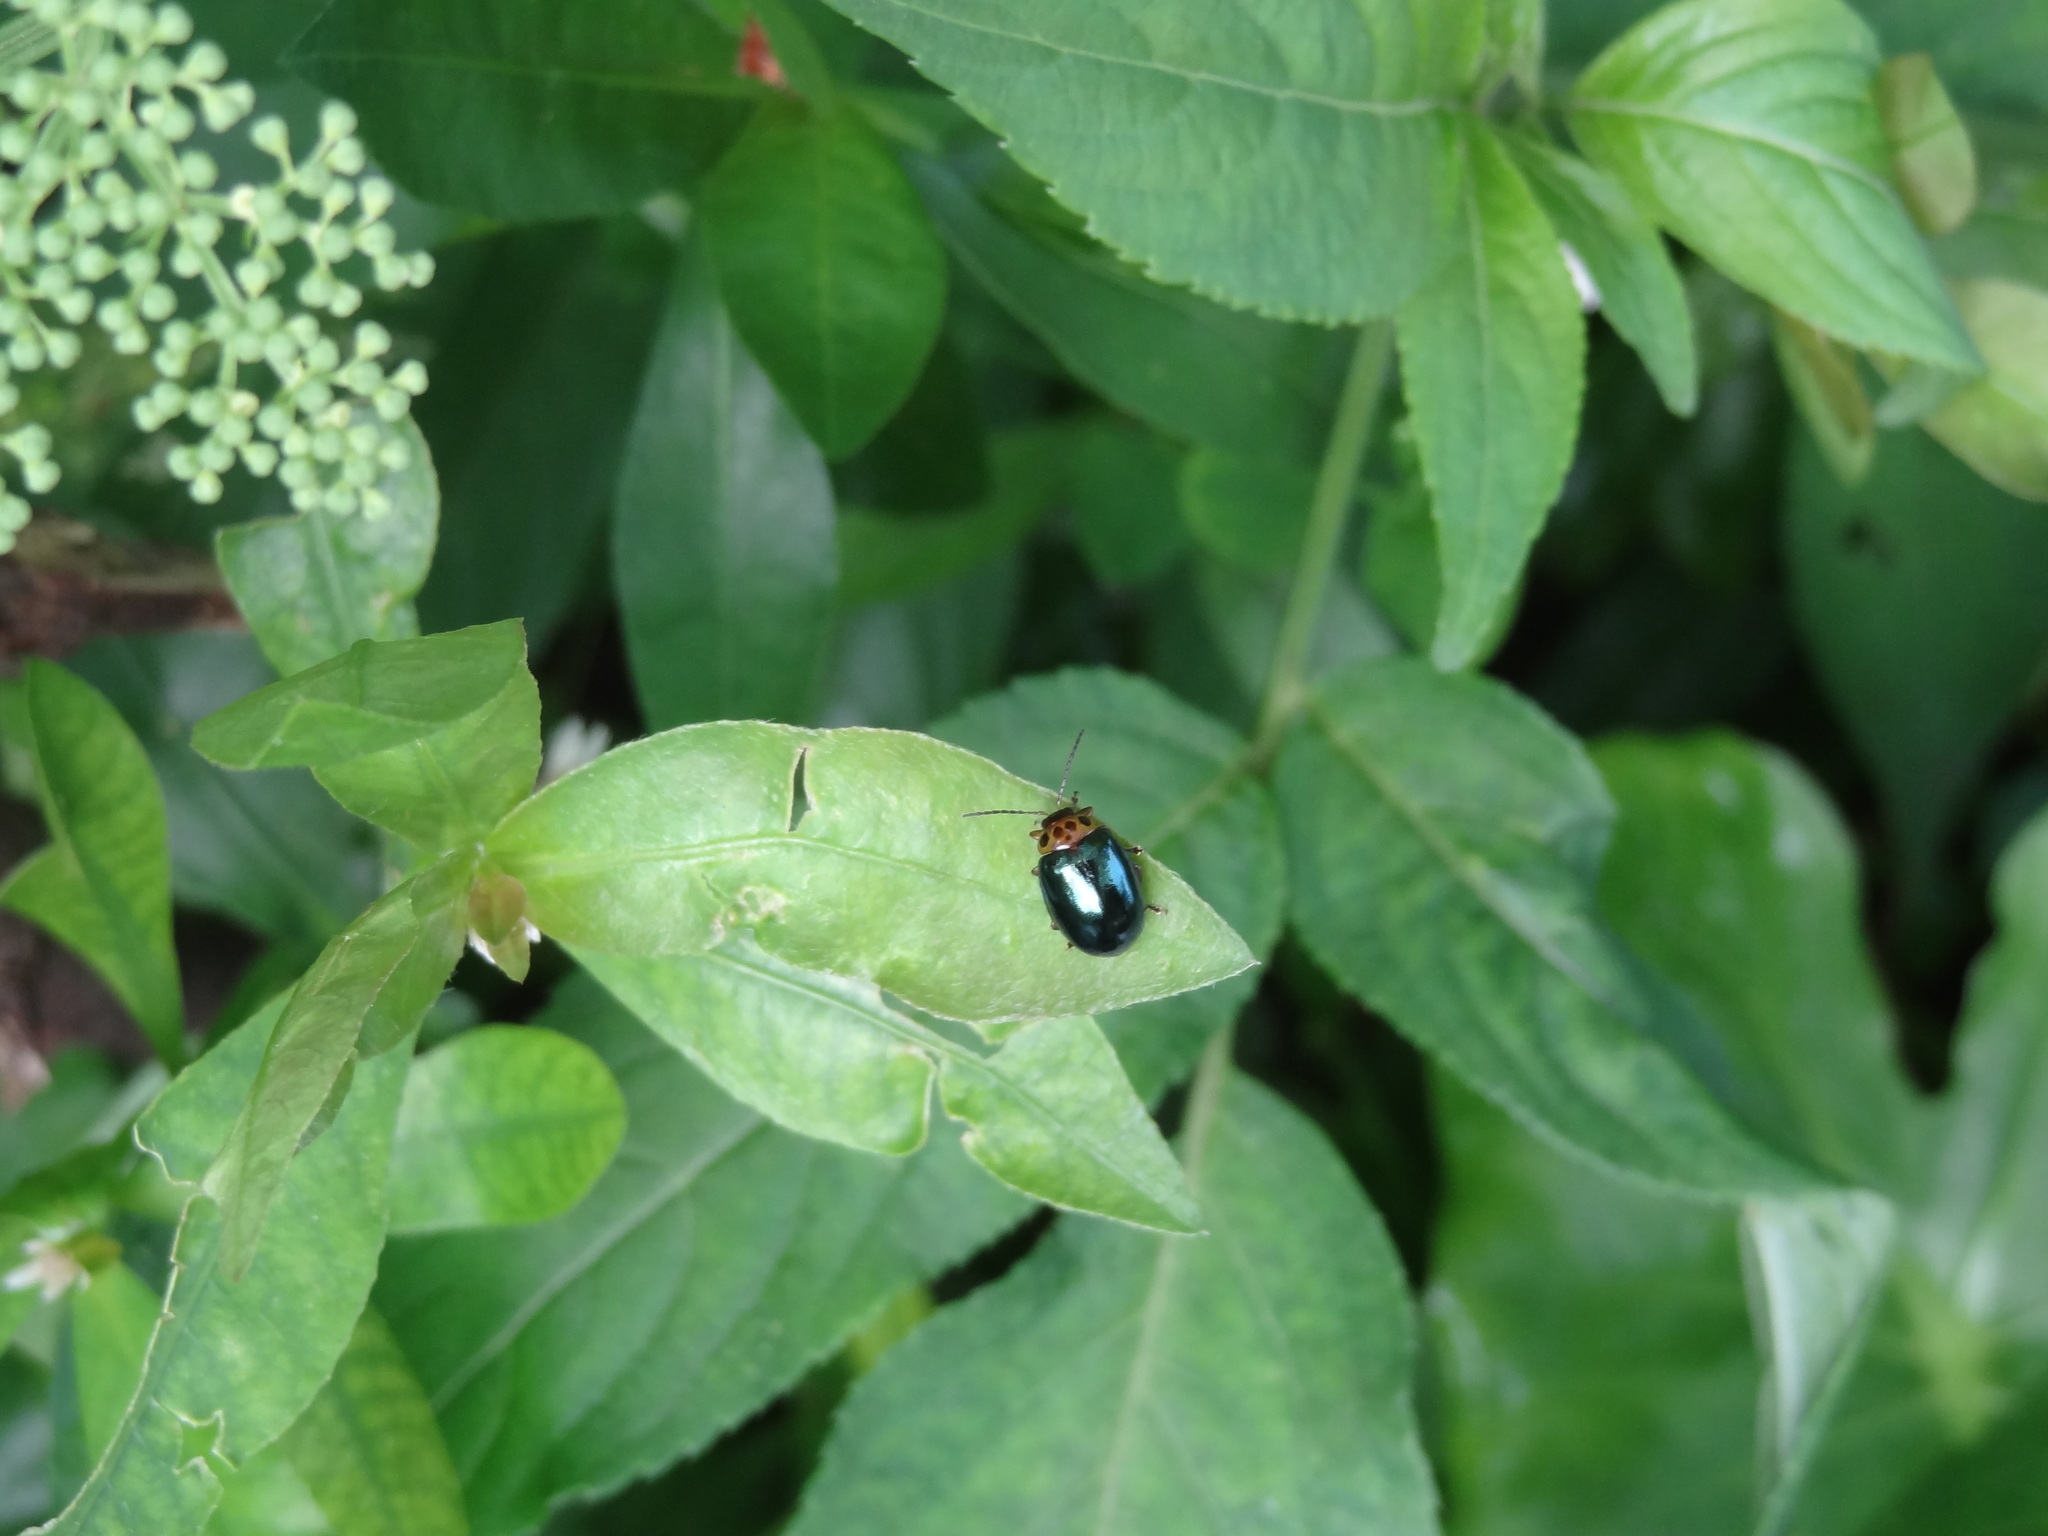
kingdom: Animalia
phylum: Arthropoda
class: Insecta
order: Coleoptera
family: Chrysomelidae
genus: Morphosphaera
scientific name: Morphosphaera chrysomeloides
